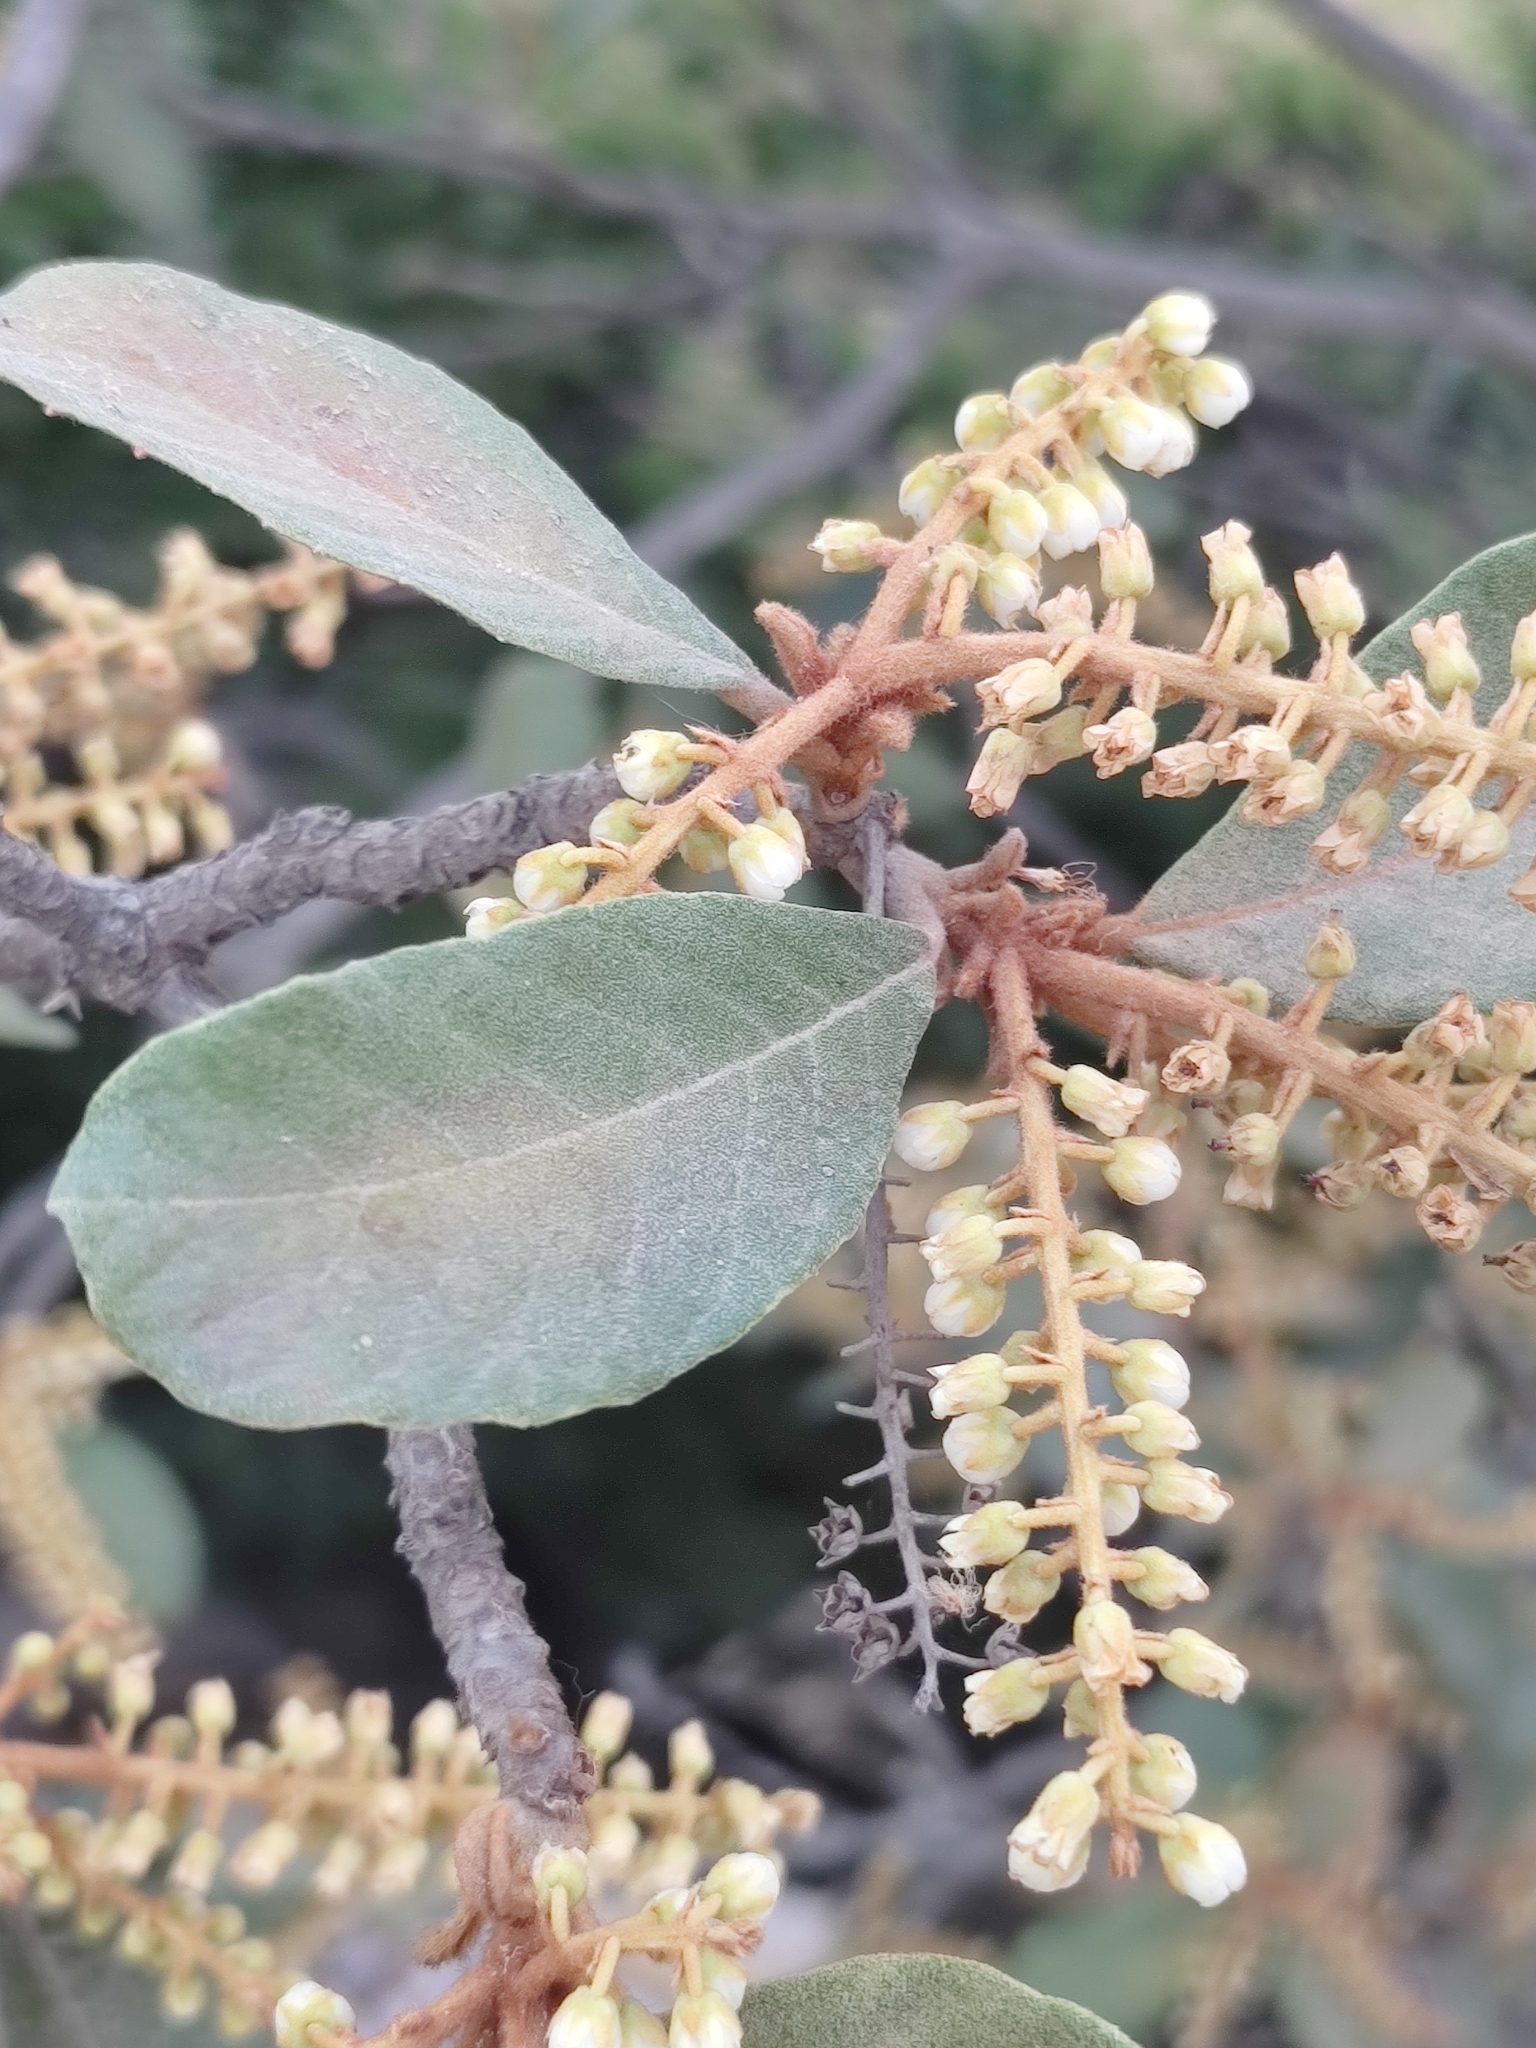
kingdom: Plantae
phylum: Tracheophyta
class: Magnoliopsida
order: Ericales
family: Clethraceae
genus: Clethra
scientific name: Clethra rosei
